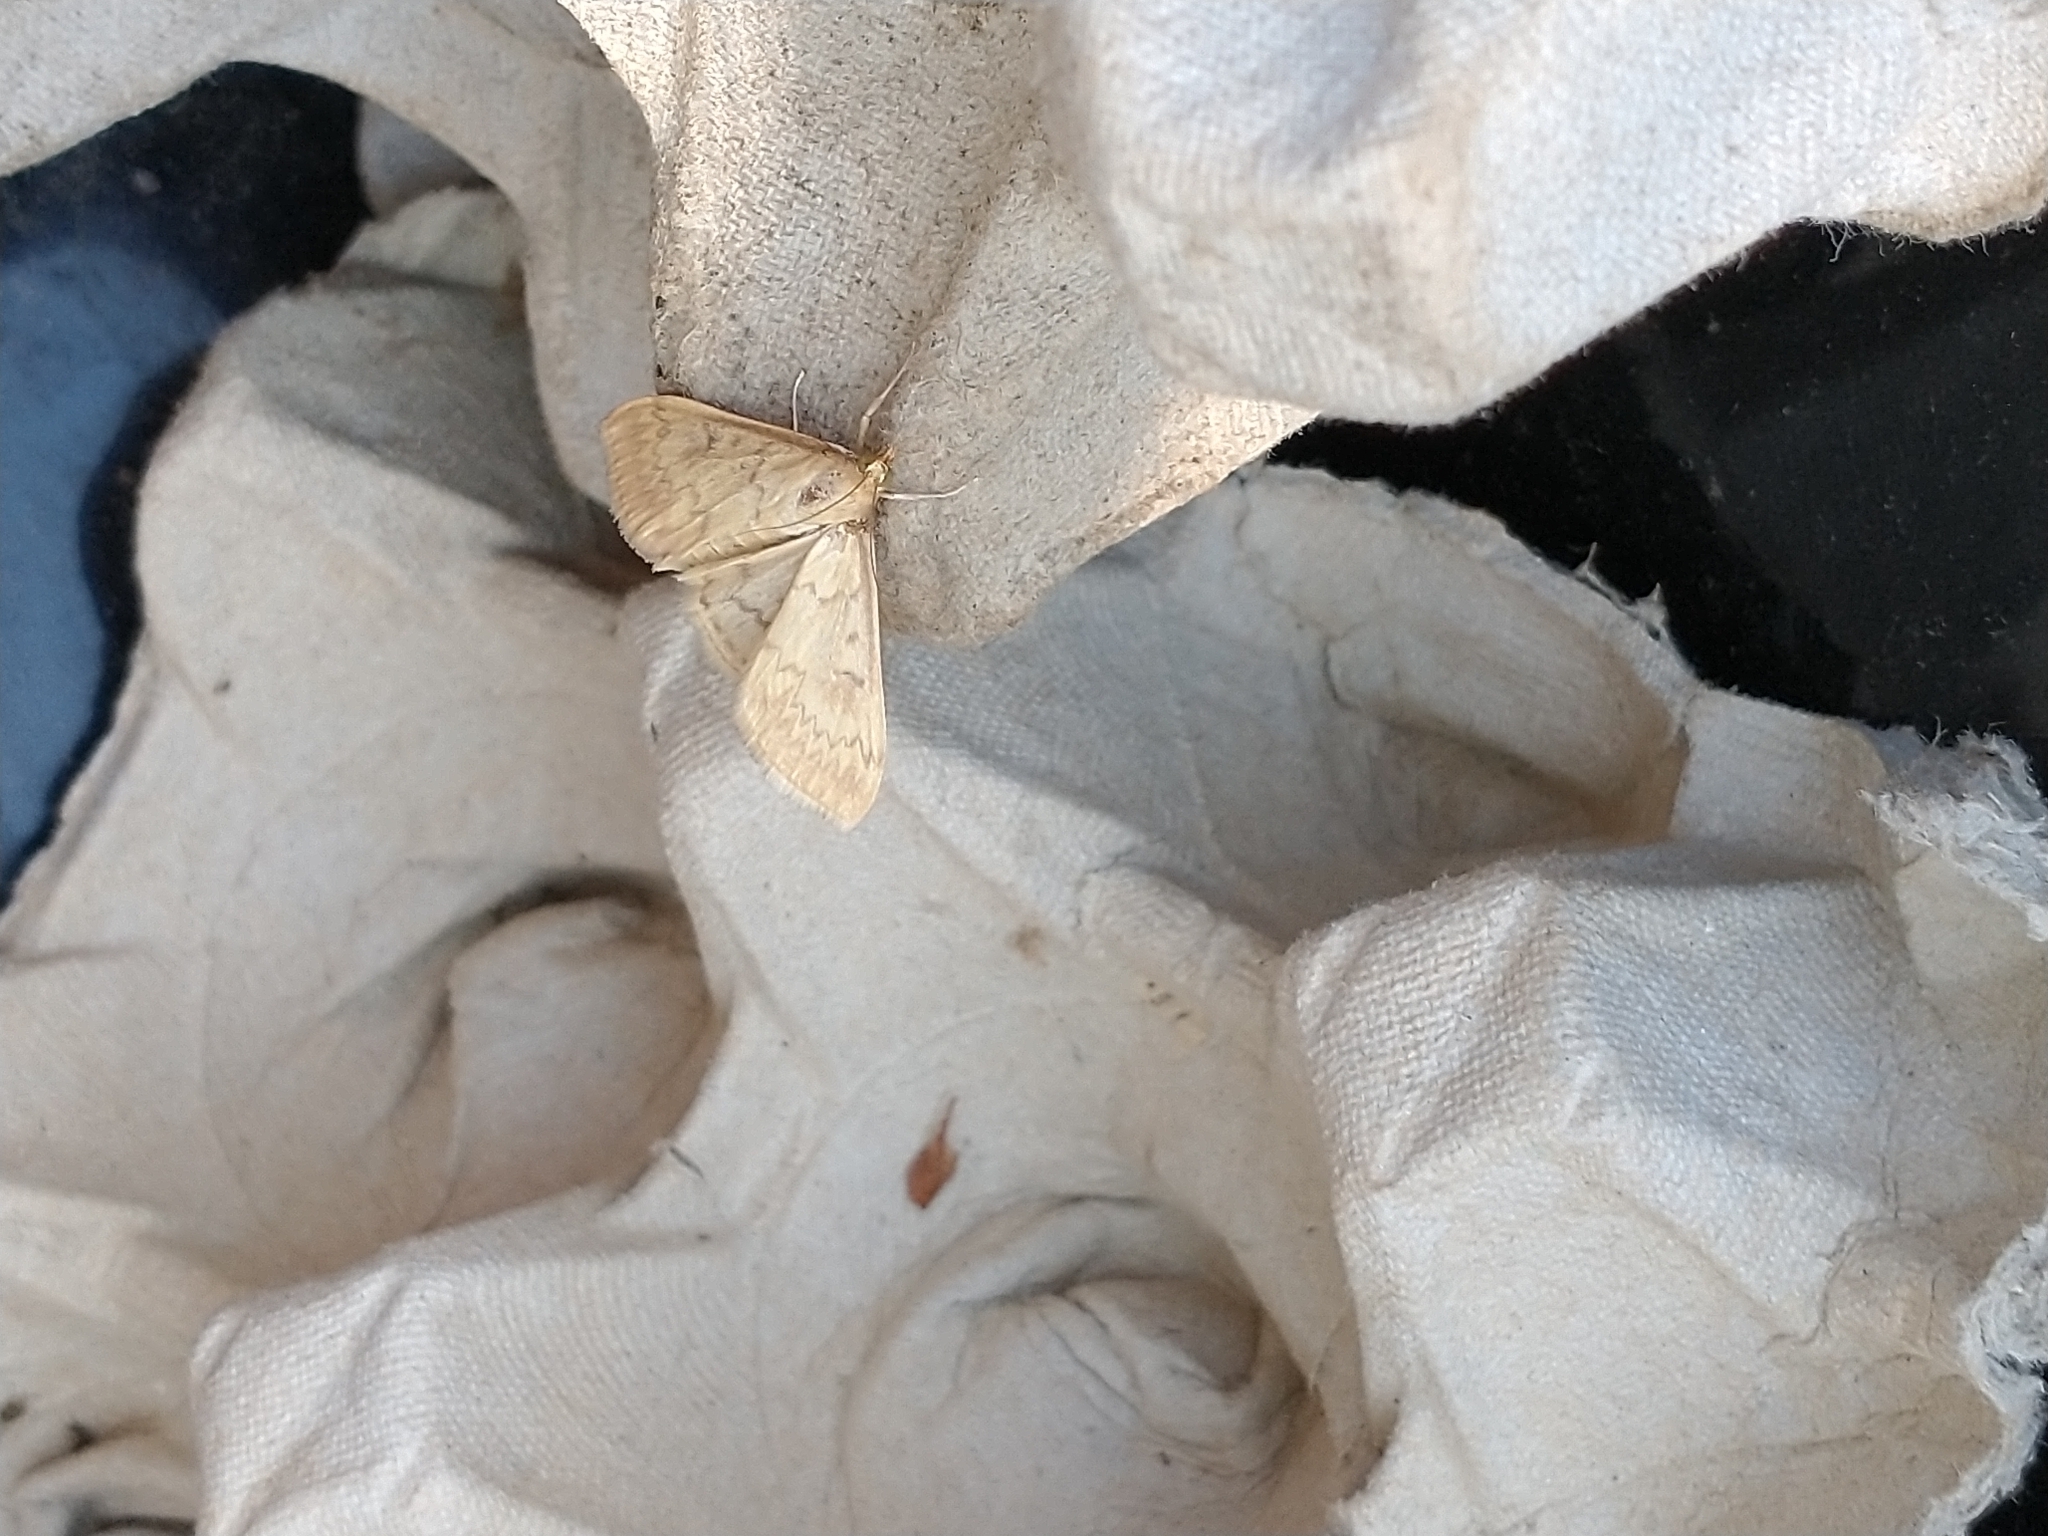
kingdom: Animalia
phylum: Arthropoda
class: Insecta
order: Lepidoptera
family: Crambidae
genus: Ostrinia
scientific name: Ostrinia nubilalis
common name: European corn borer
